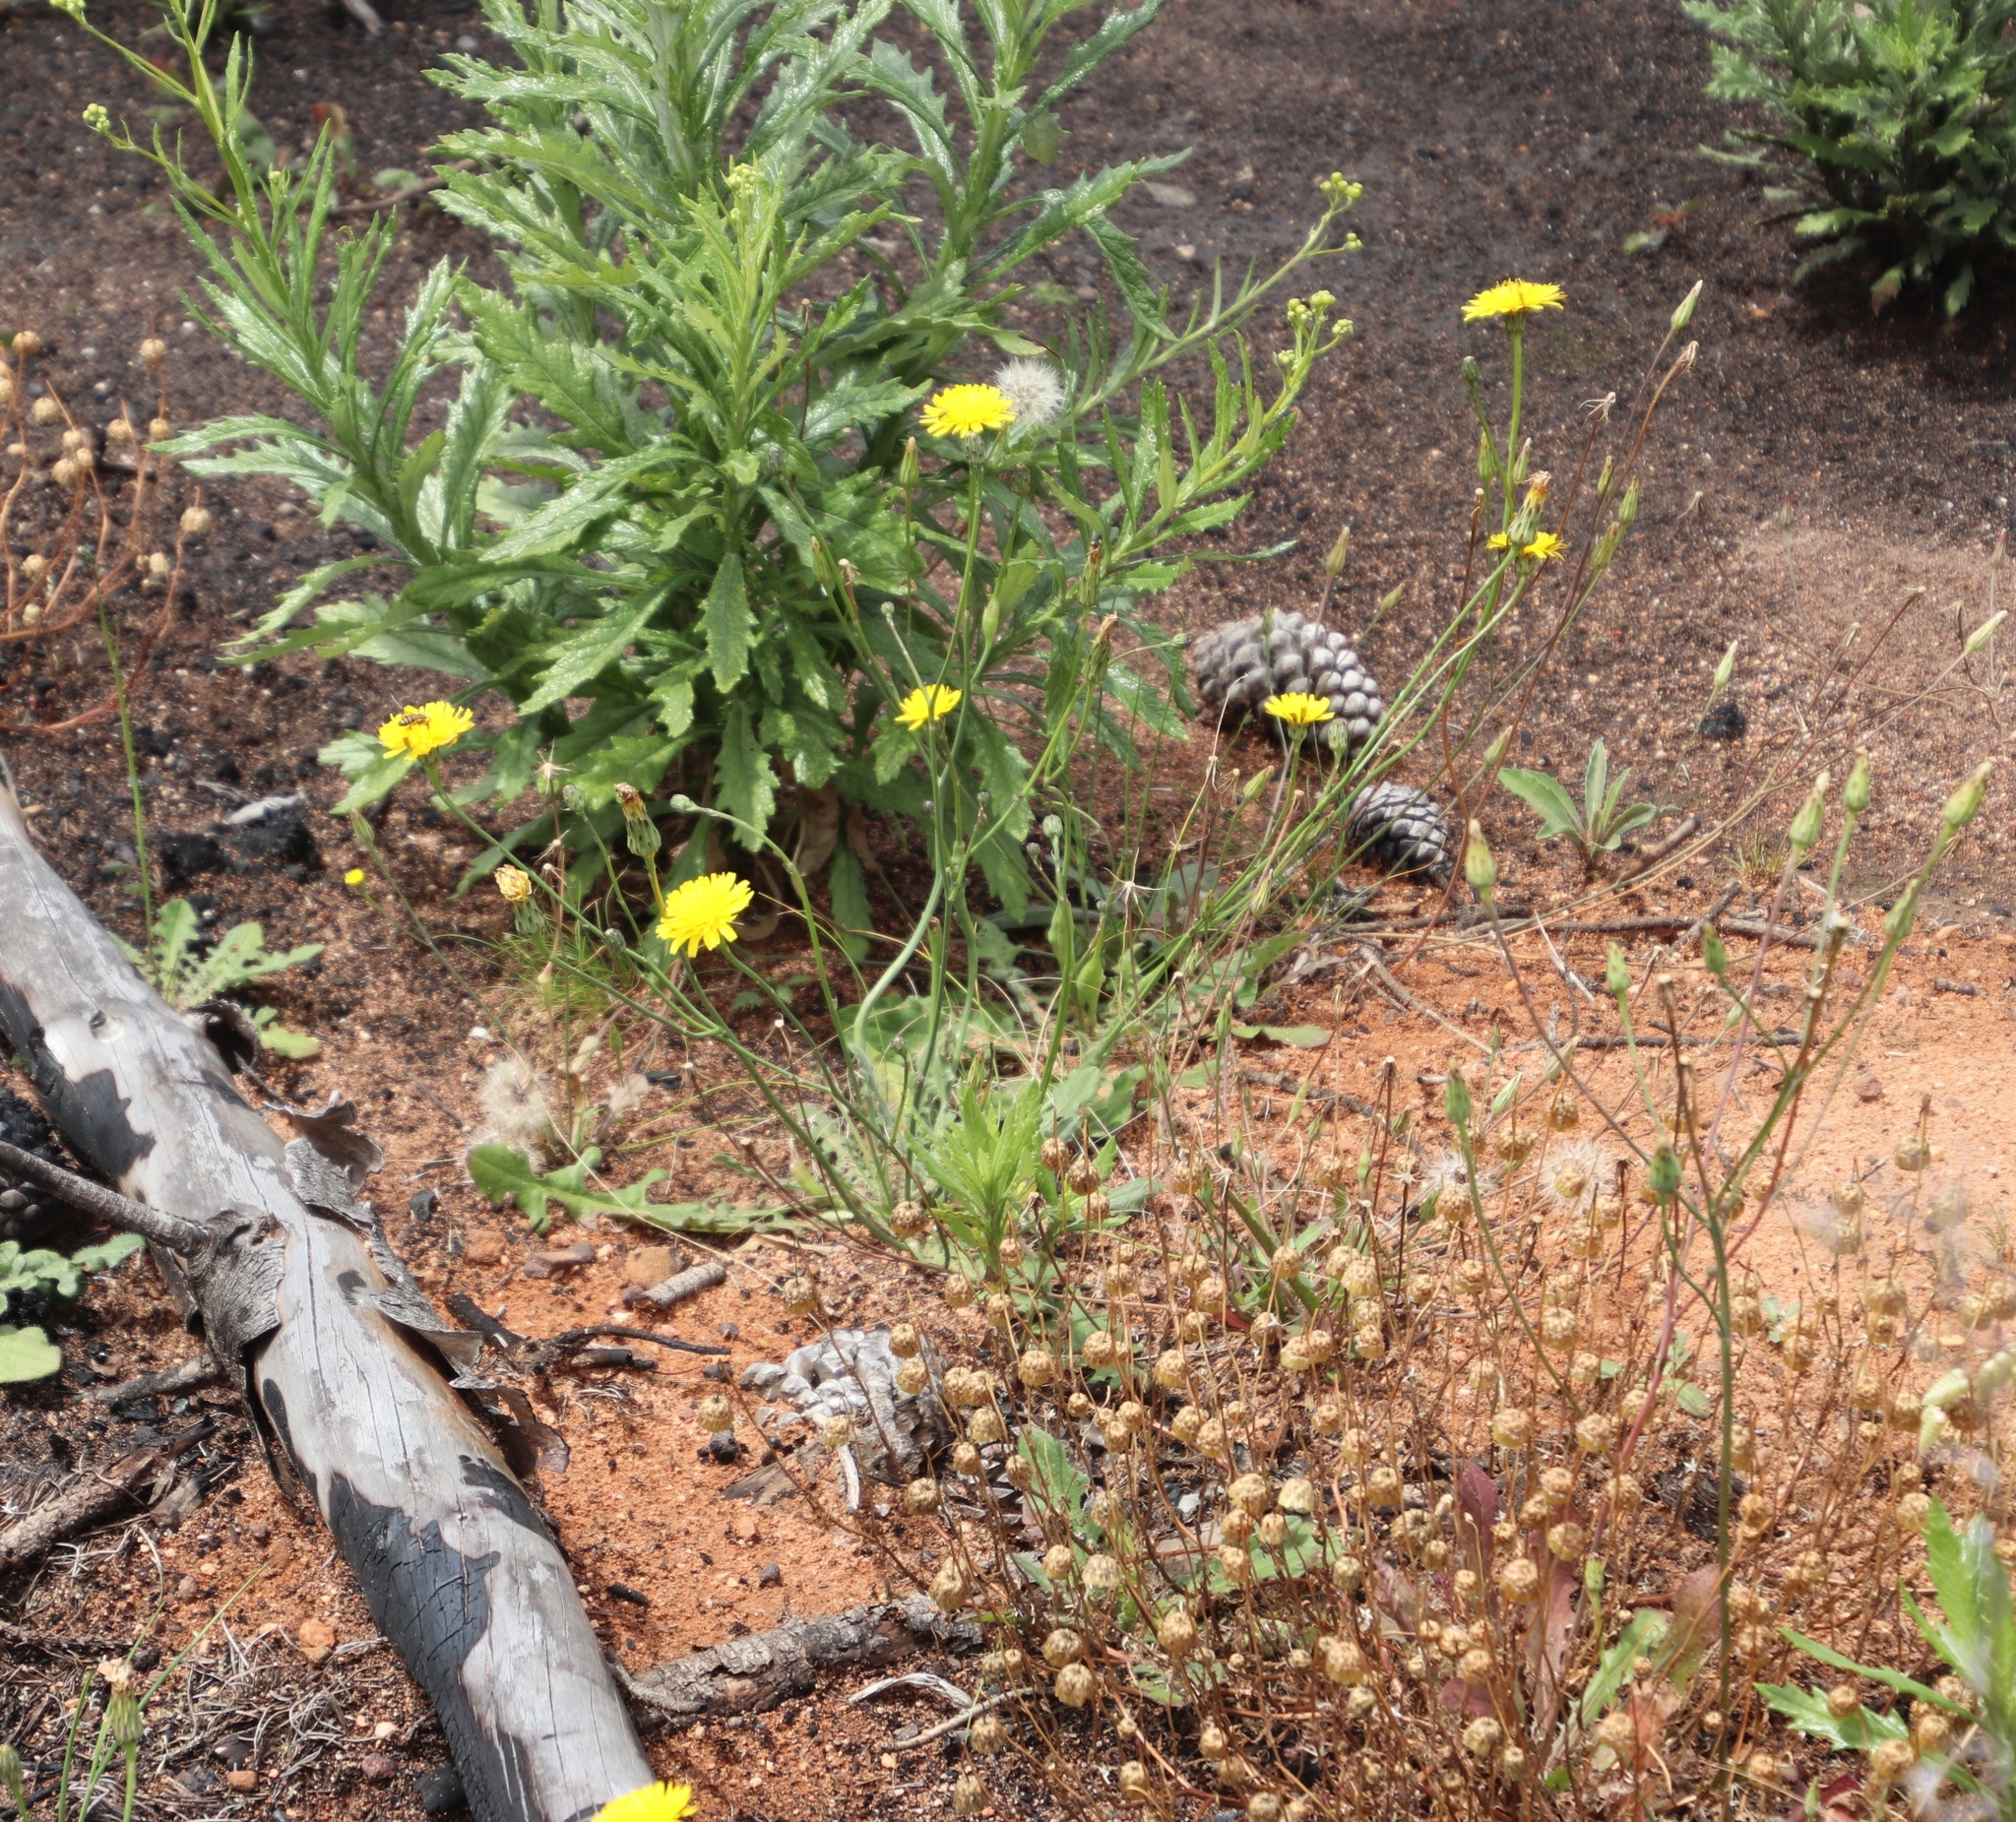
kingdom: Plantae
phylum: Tracheophyta
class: Magnoliopsida
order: Asterales
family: Asteraceae
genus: Hypochaeris
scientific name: Hypochaeris radicata
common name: Flatweed
